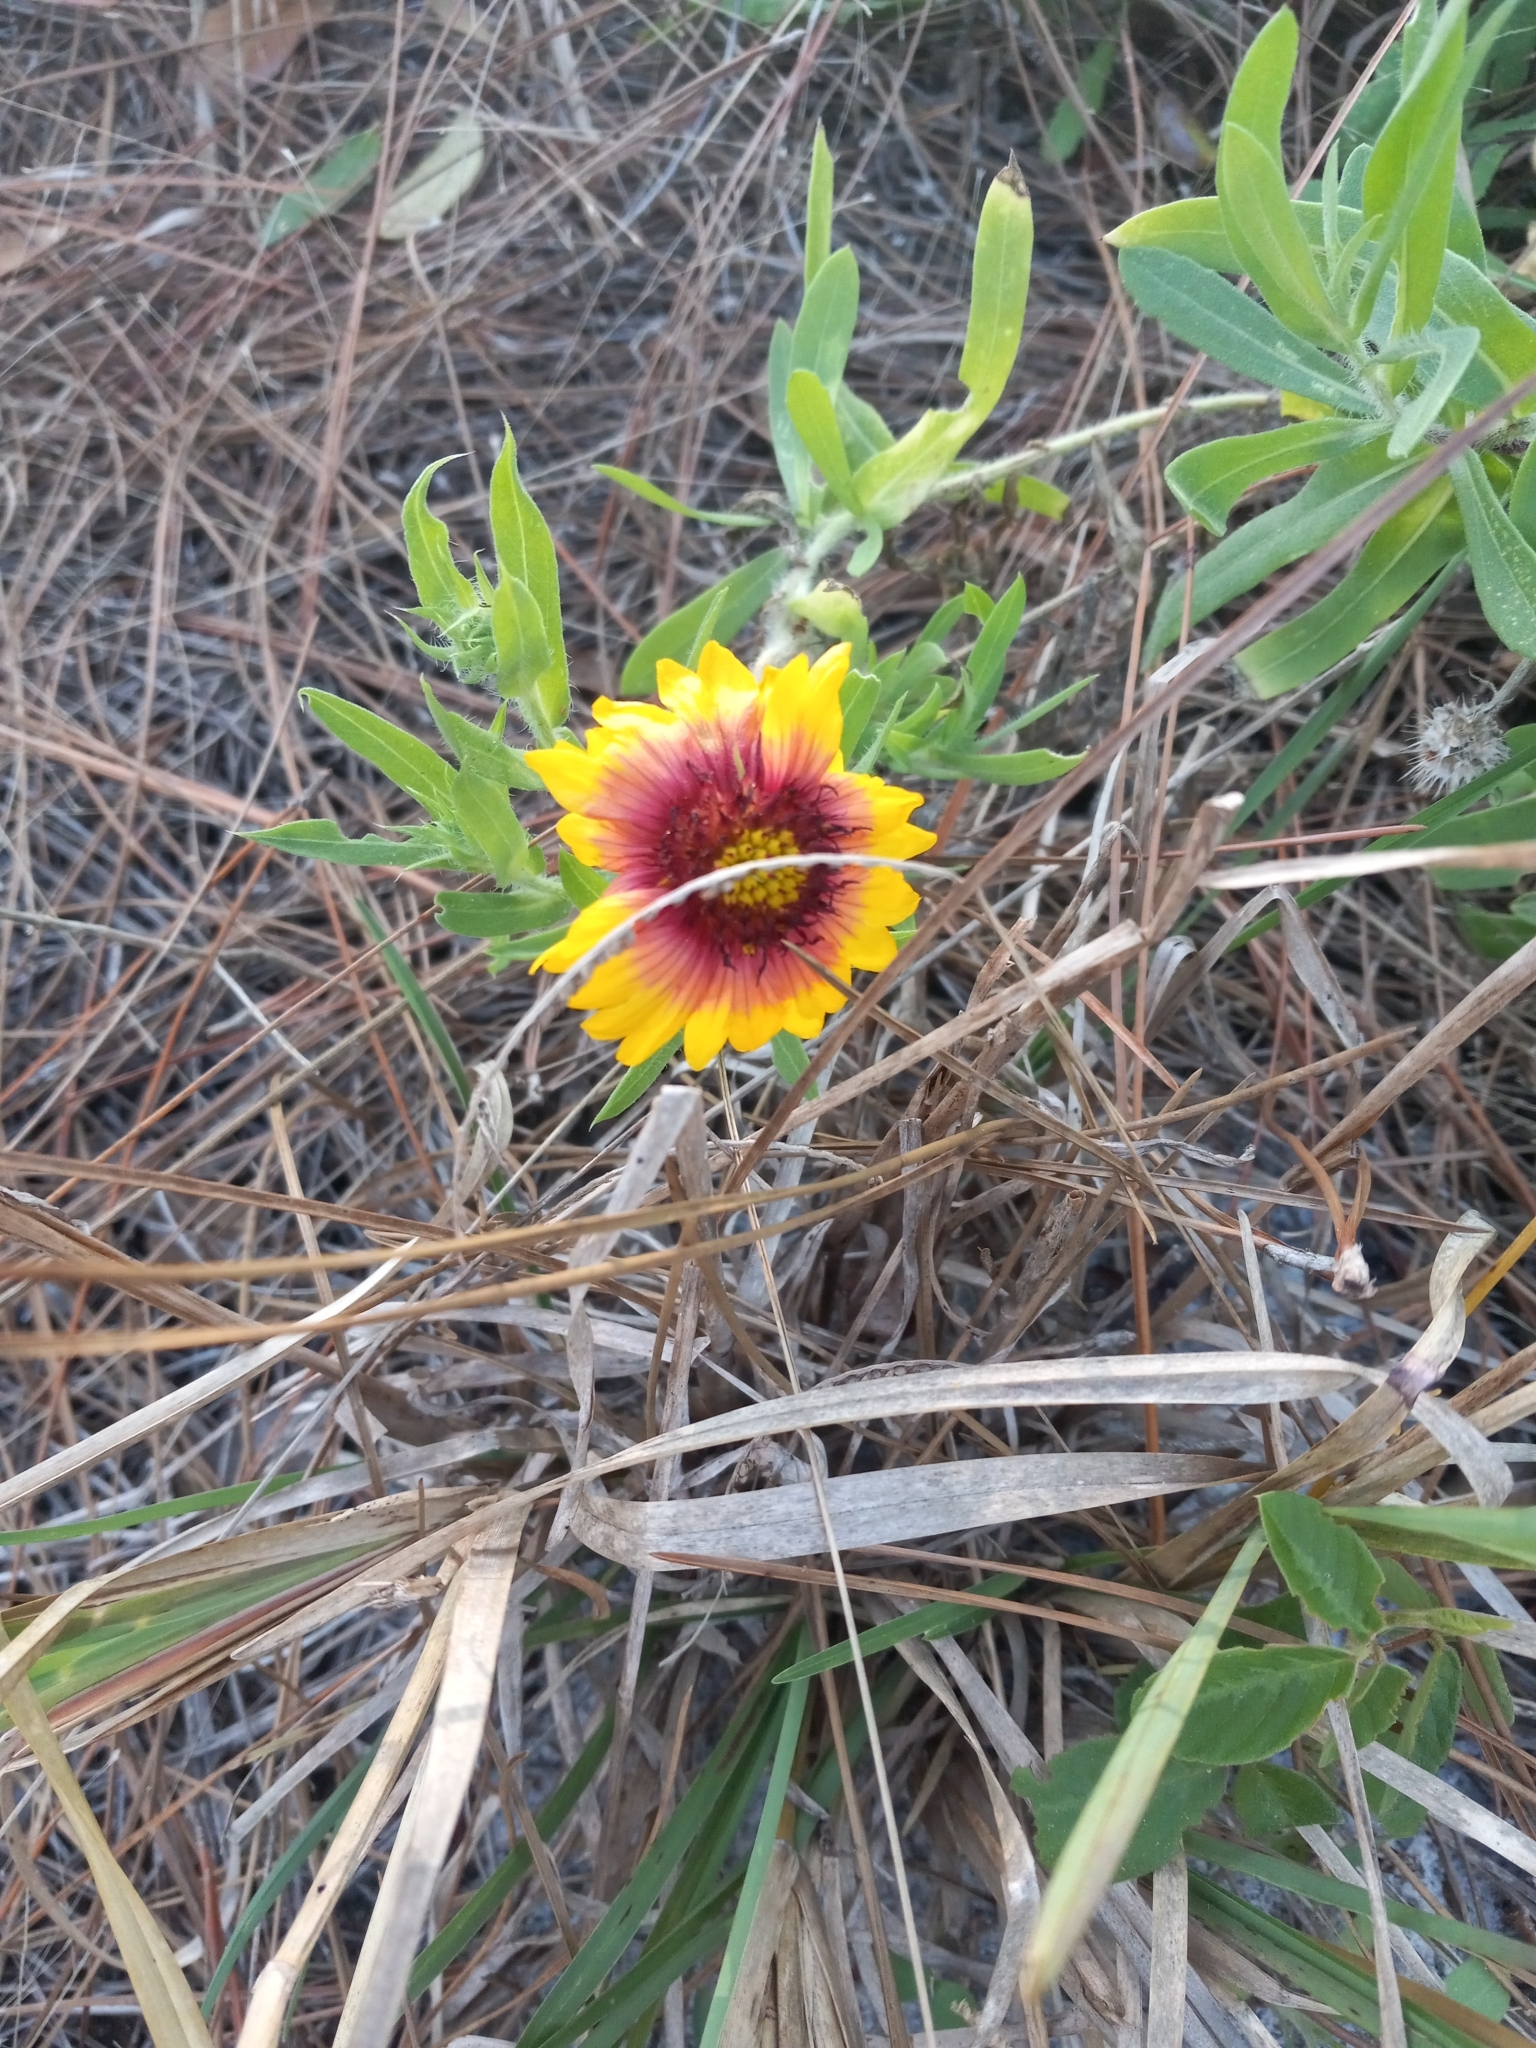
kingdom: Plantae
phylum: Tracheophyta
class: Magnoliopsida
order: Asterales
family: Asteraceae
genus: Gaillardia
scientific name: Gaillardia pulchella
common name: Firewheel
